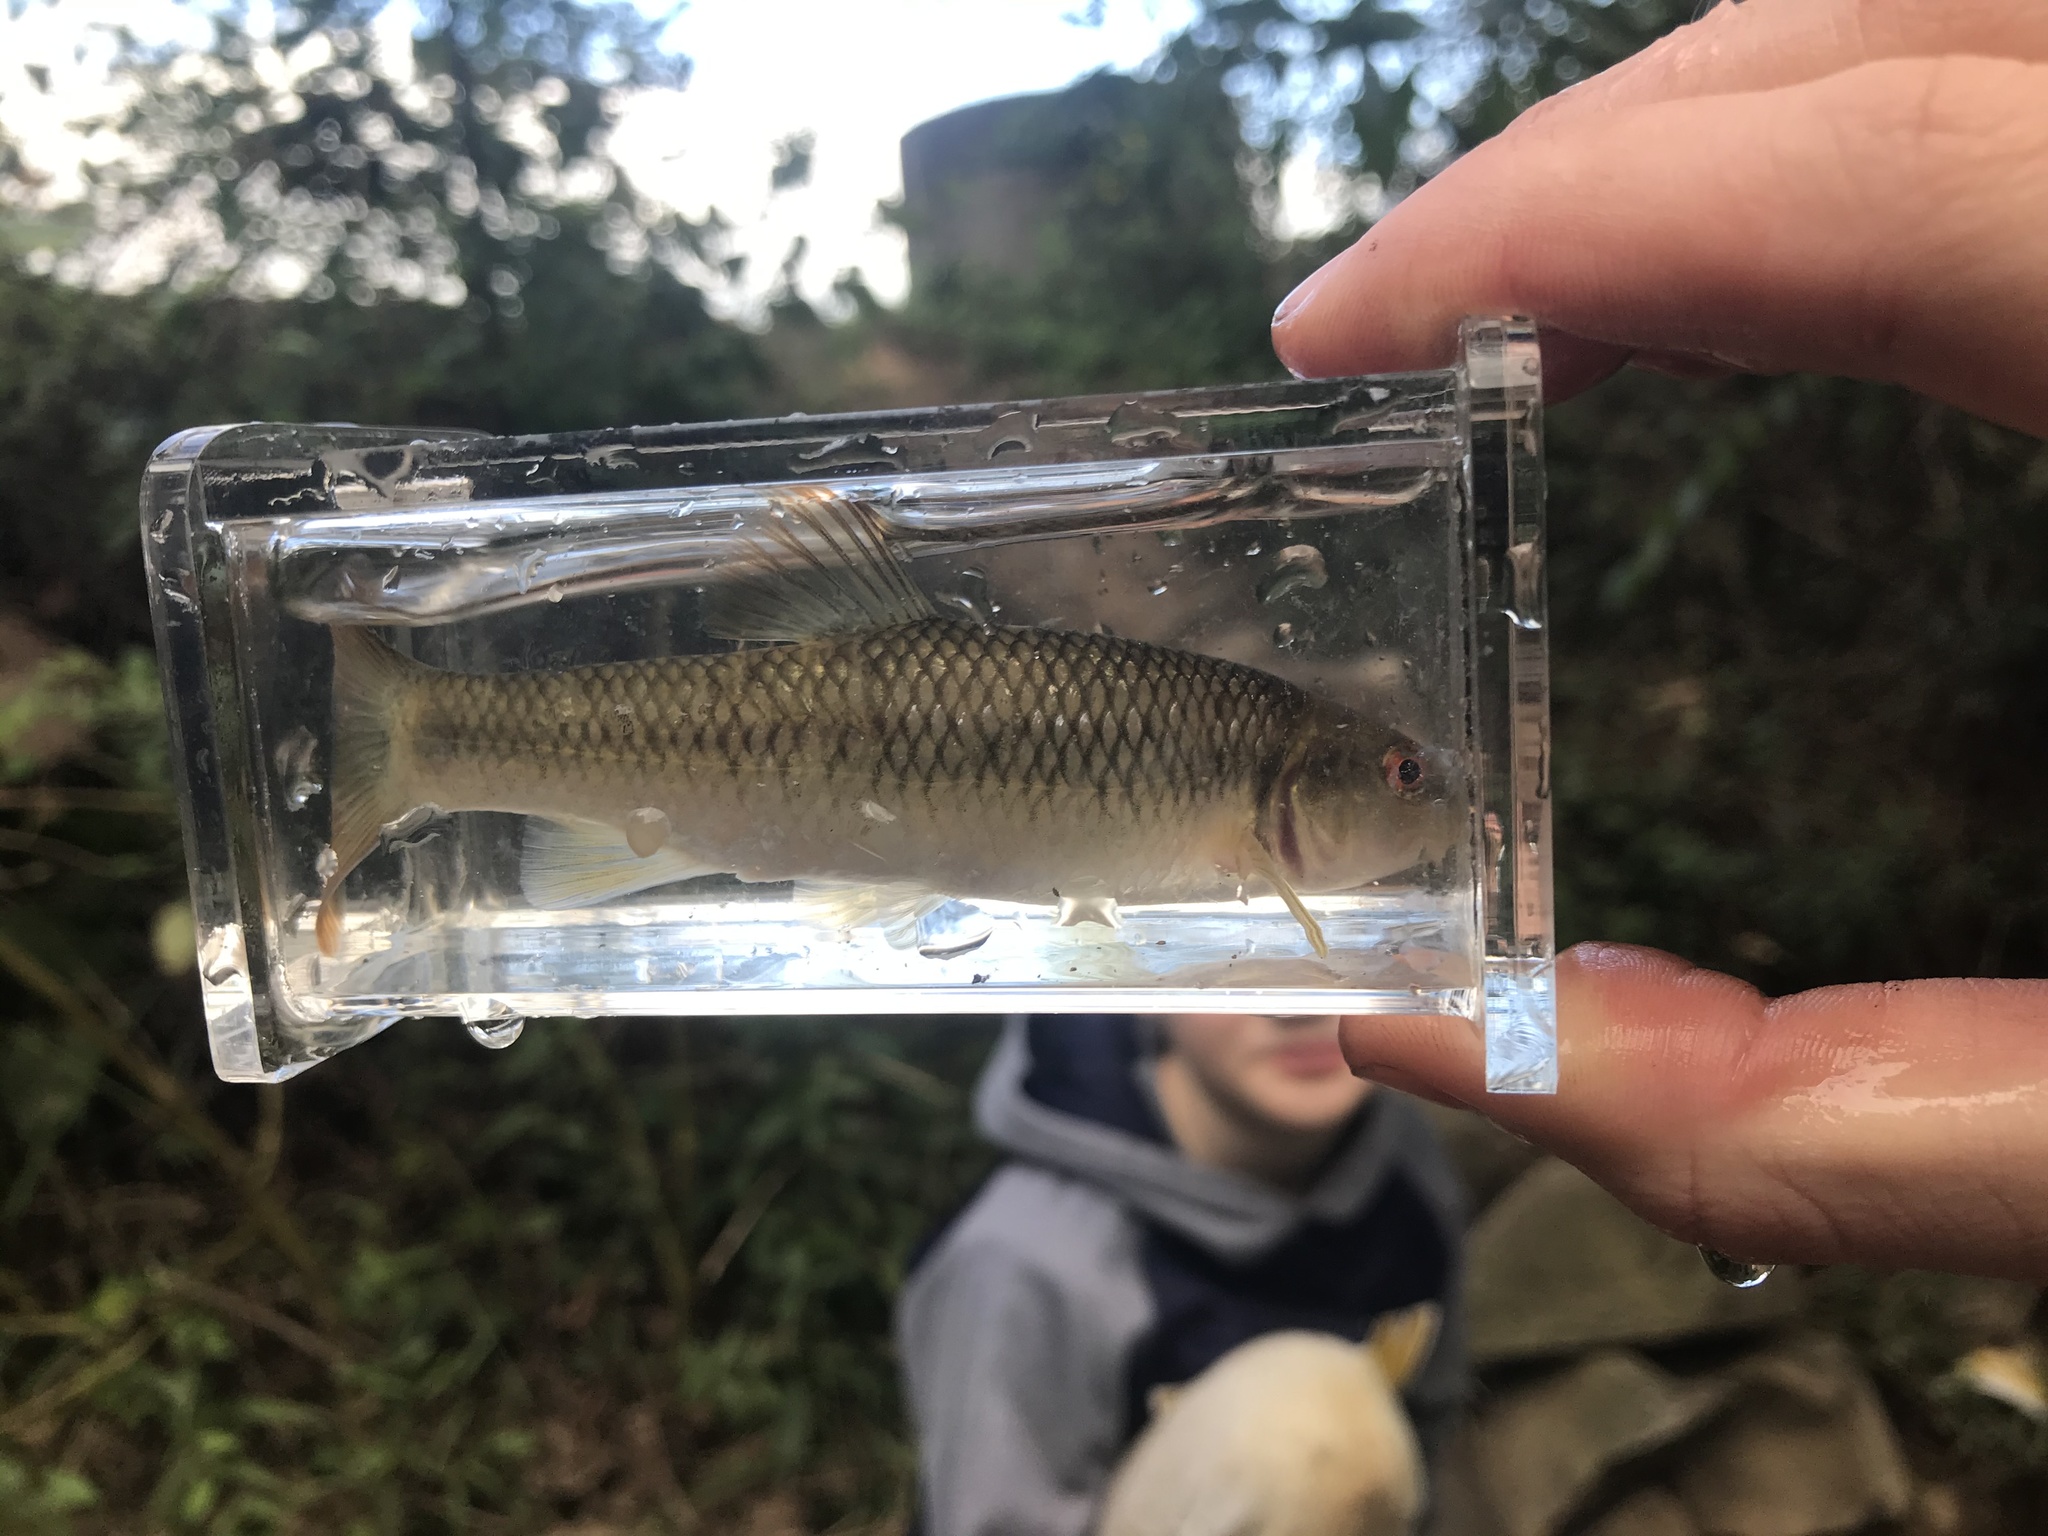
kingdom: Animalia
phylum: Chordata
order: Cypriniformes
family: Cyprinidae
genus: Nocomis
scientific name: Nocomis leptocephalus
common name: Bluehead chub
